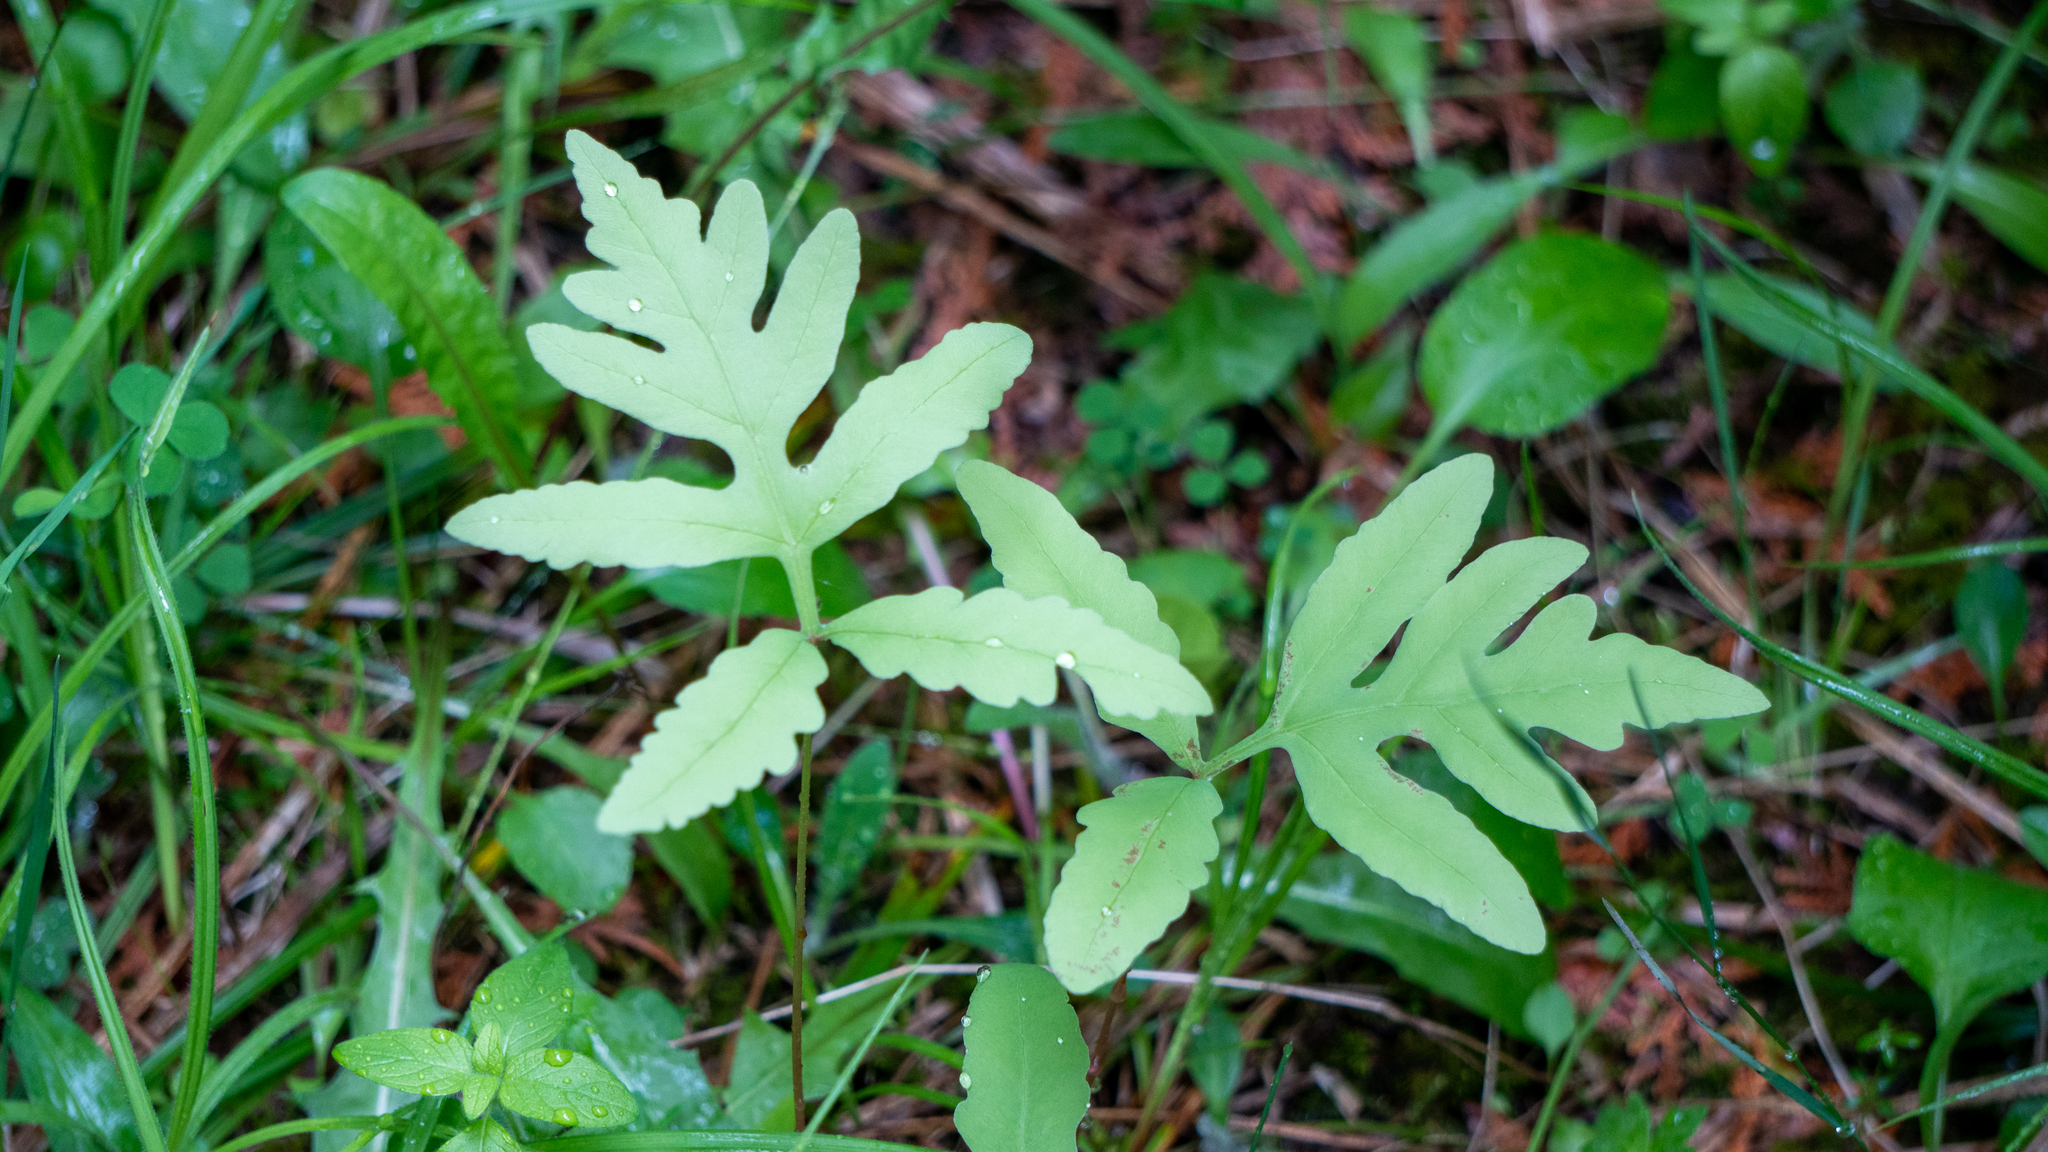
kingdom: Plantae
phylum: Tracheophyta
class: Polypodiopsida
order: Polypodiales
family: Onocleaceae
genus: Onoclea
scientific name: Onoclea sensibilis
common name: Sensitive fern
